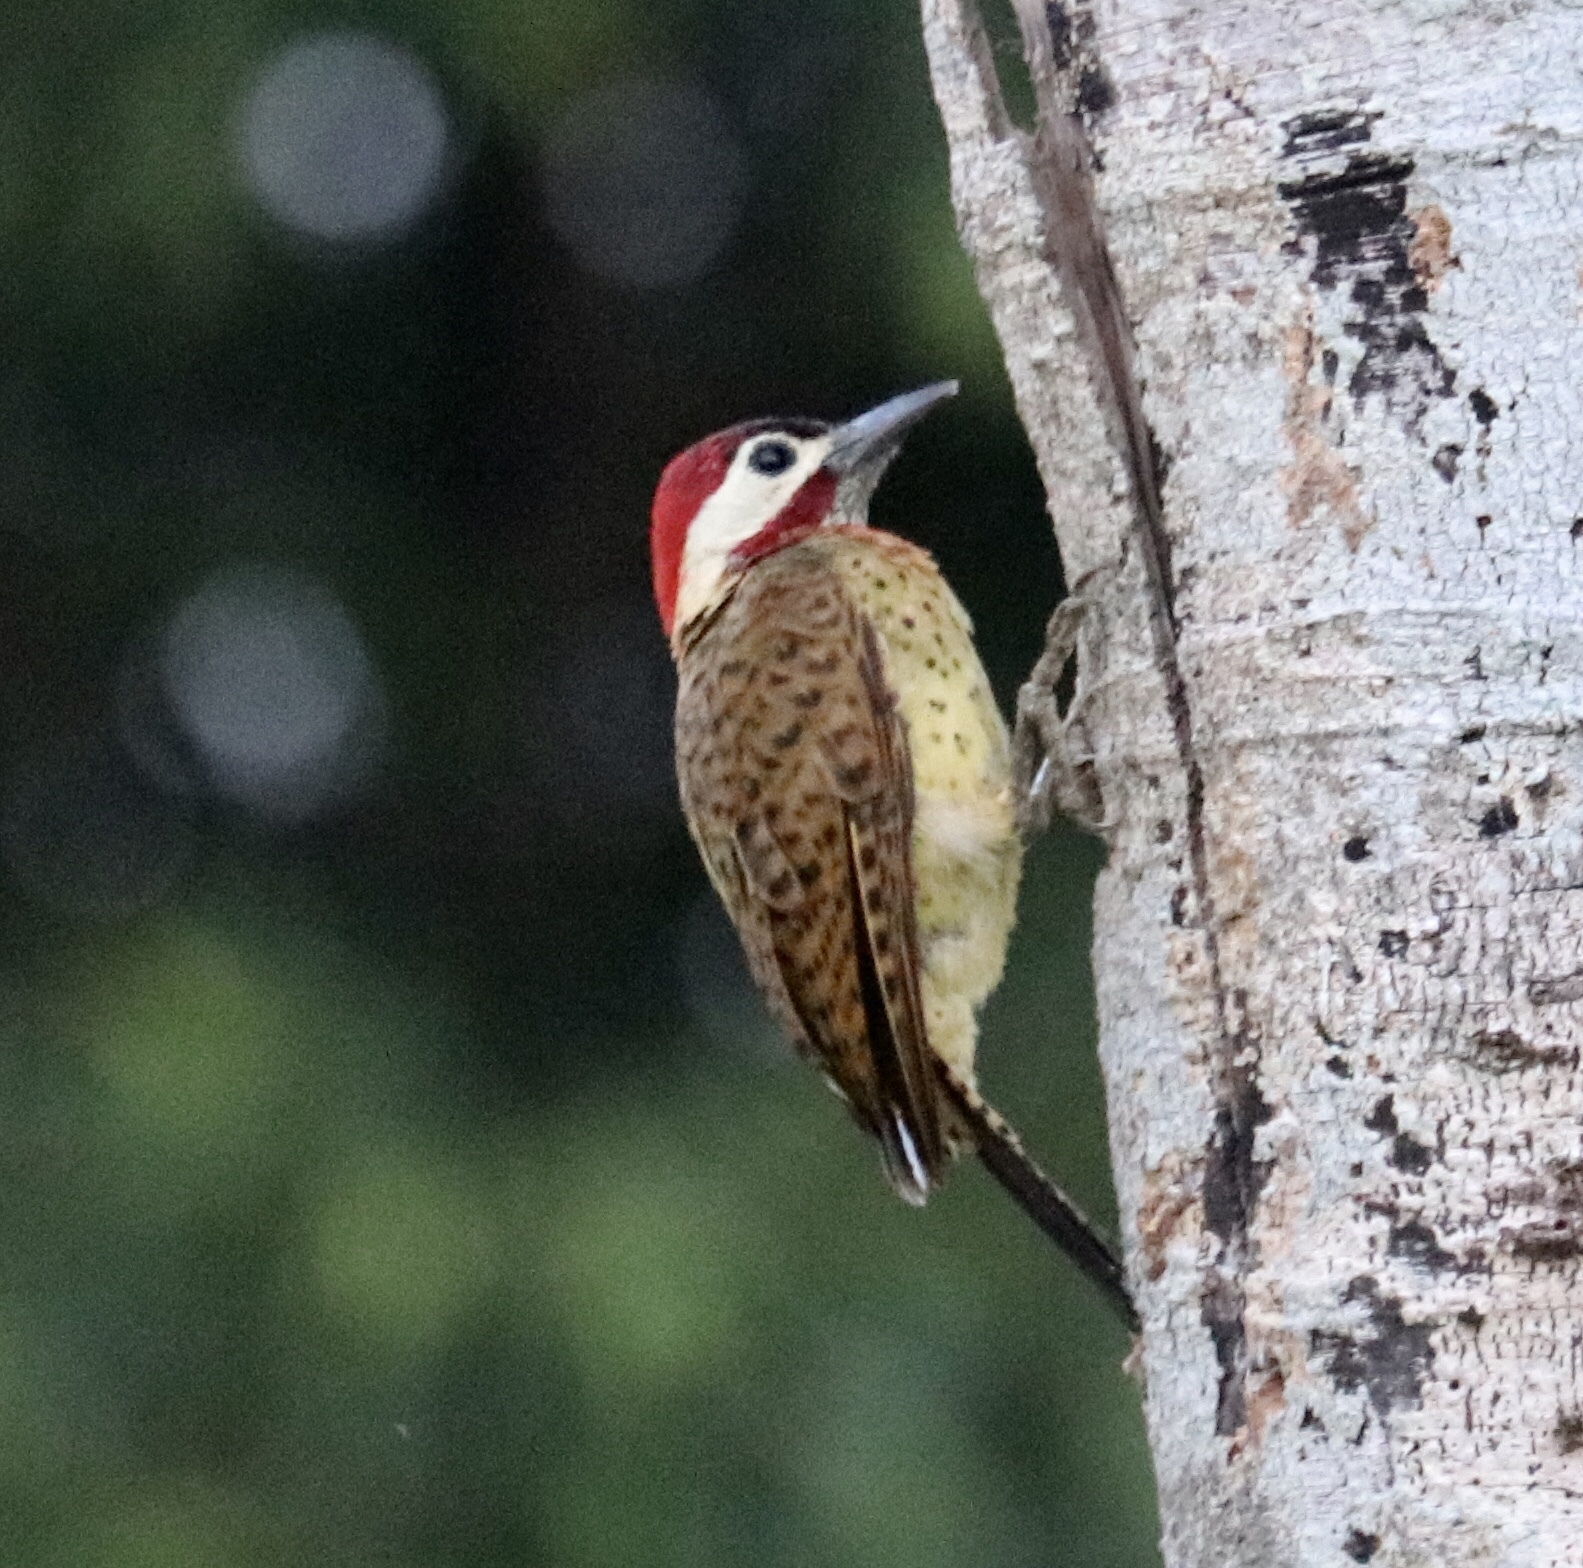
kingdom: Animalia
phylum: Chordata
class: Aves
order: Piciformes
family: Picidae
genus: Colaptes
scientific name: Colaptes punctigula
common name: Spot-breasted woodpecker
